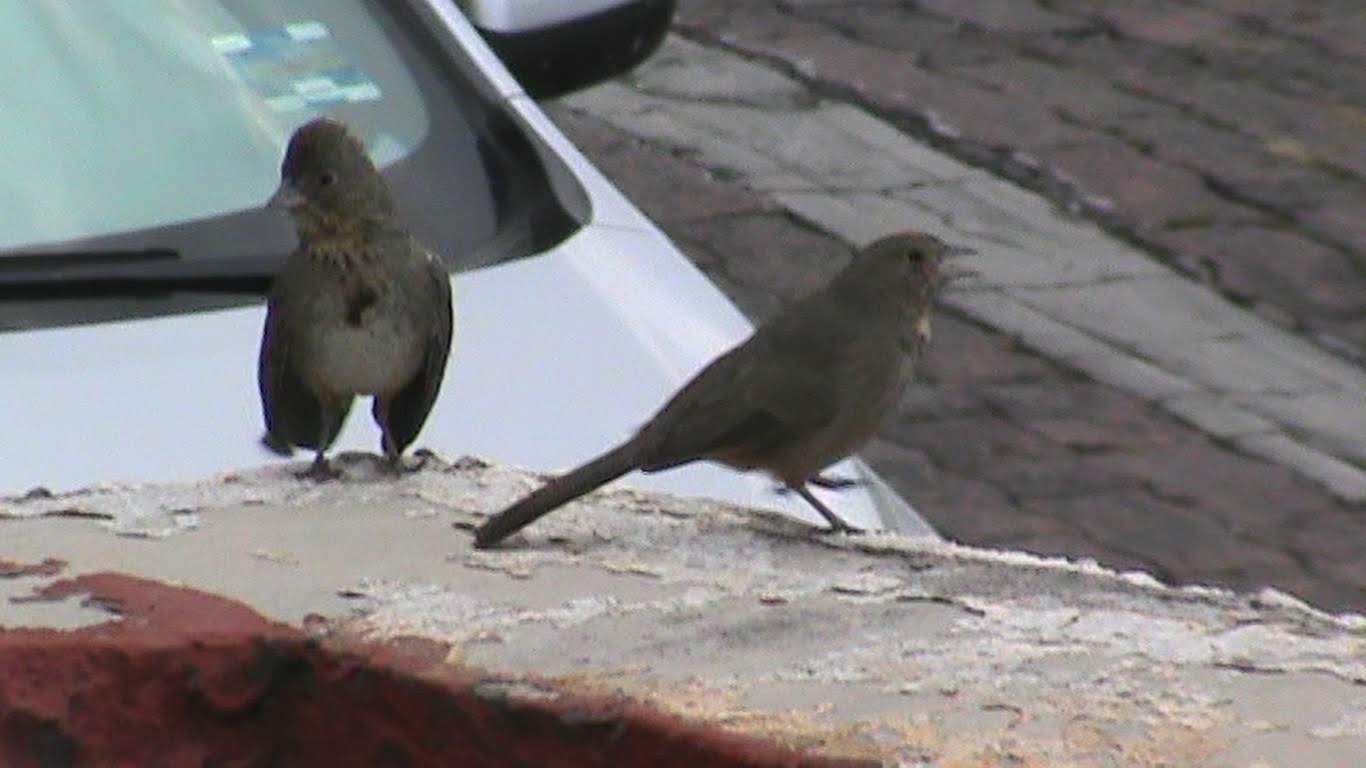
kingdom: Animalia
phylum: Chordata
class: Aves
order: Passeriformes
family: Passerellidae
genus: Melozone
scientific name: Melozone fusca
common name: Canyon towhee
